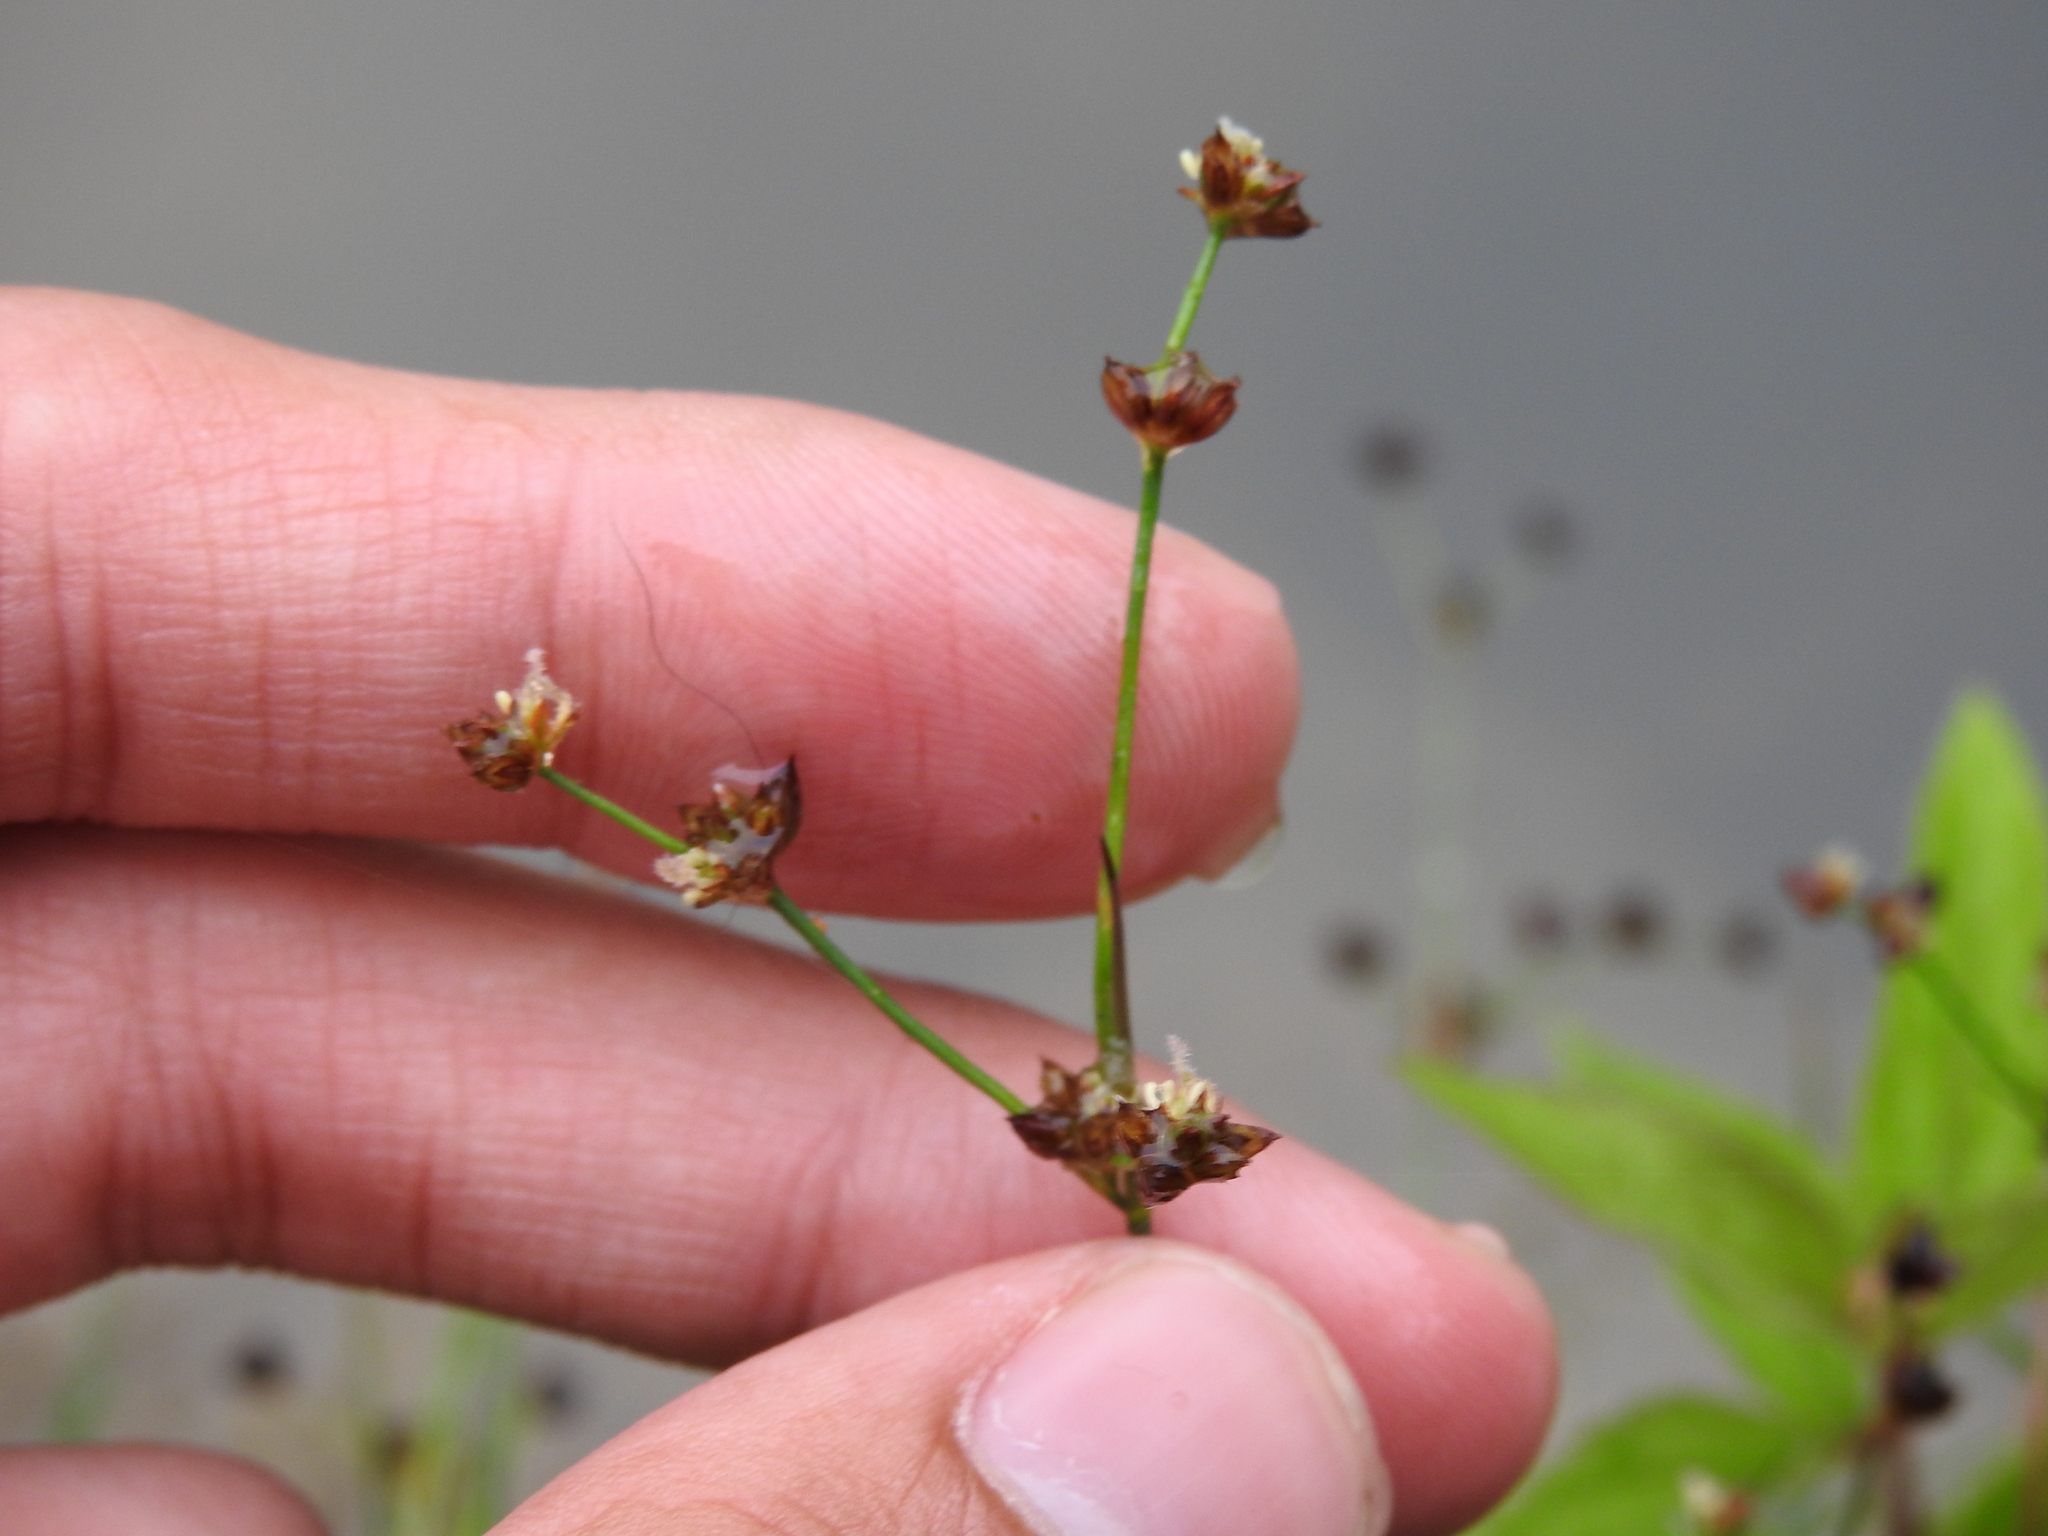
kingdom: Plantae
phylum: Tracheophyta
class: Liliopsida
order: Poales
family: Juncaceae
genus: Juncus
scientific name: Juncus articulatus
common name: Jointed rush
